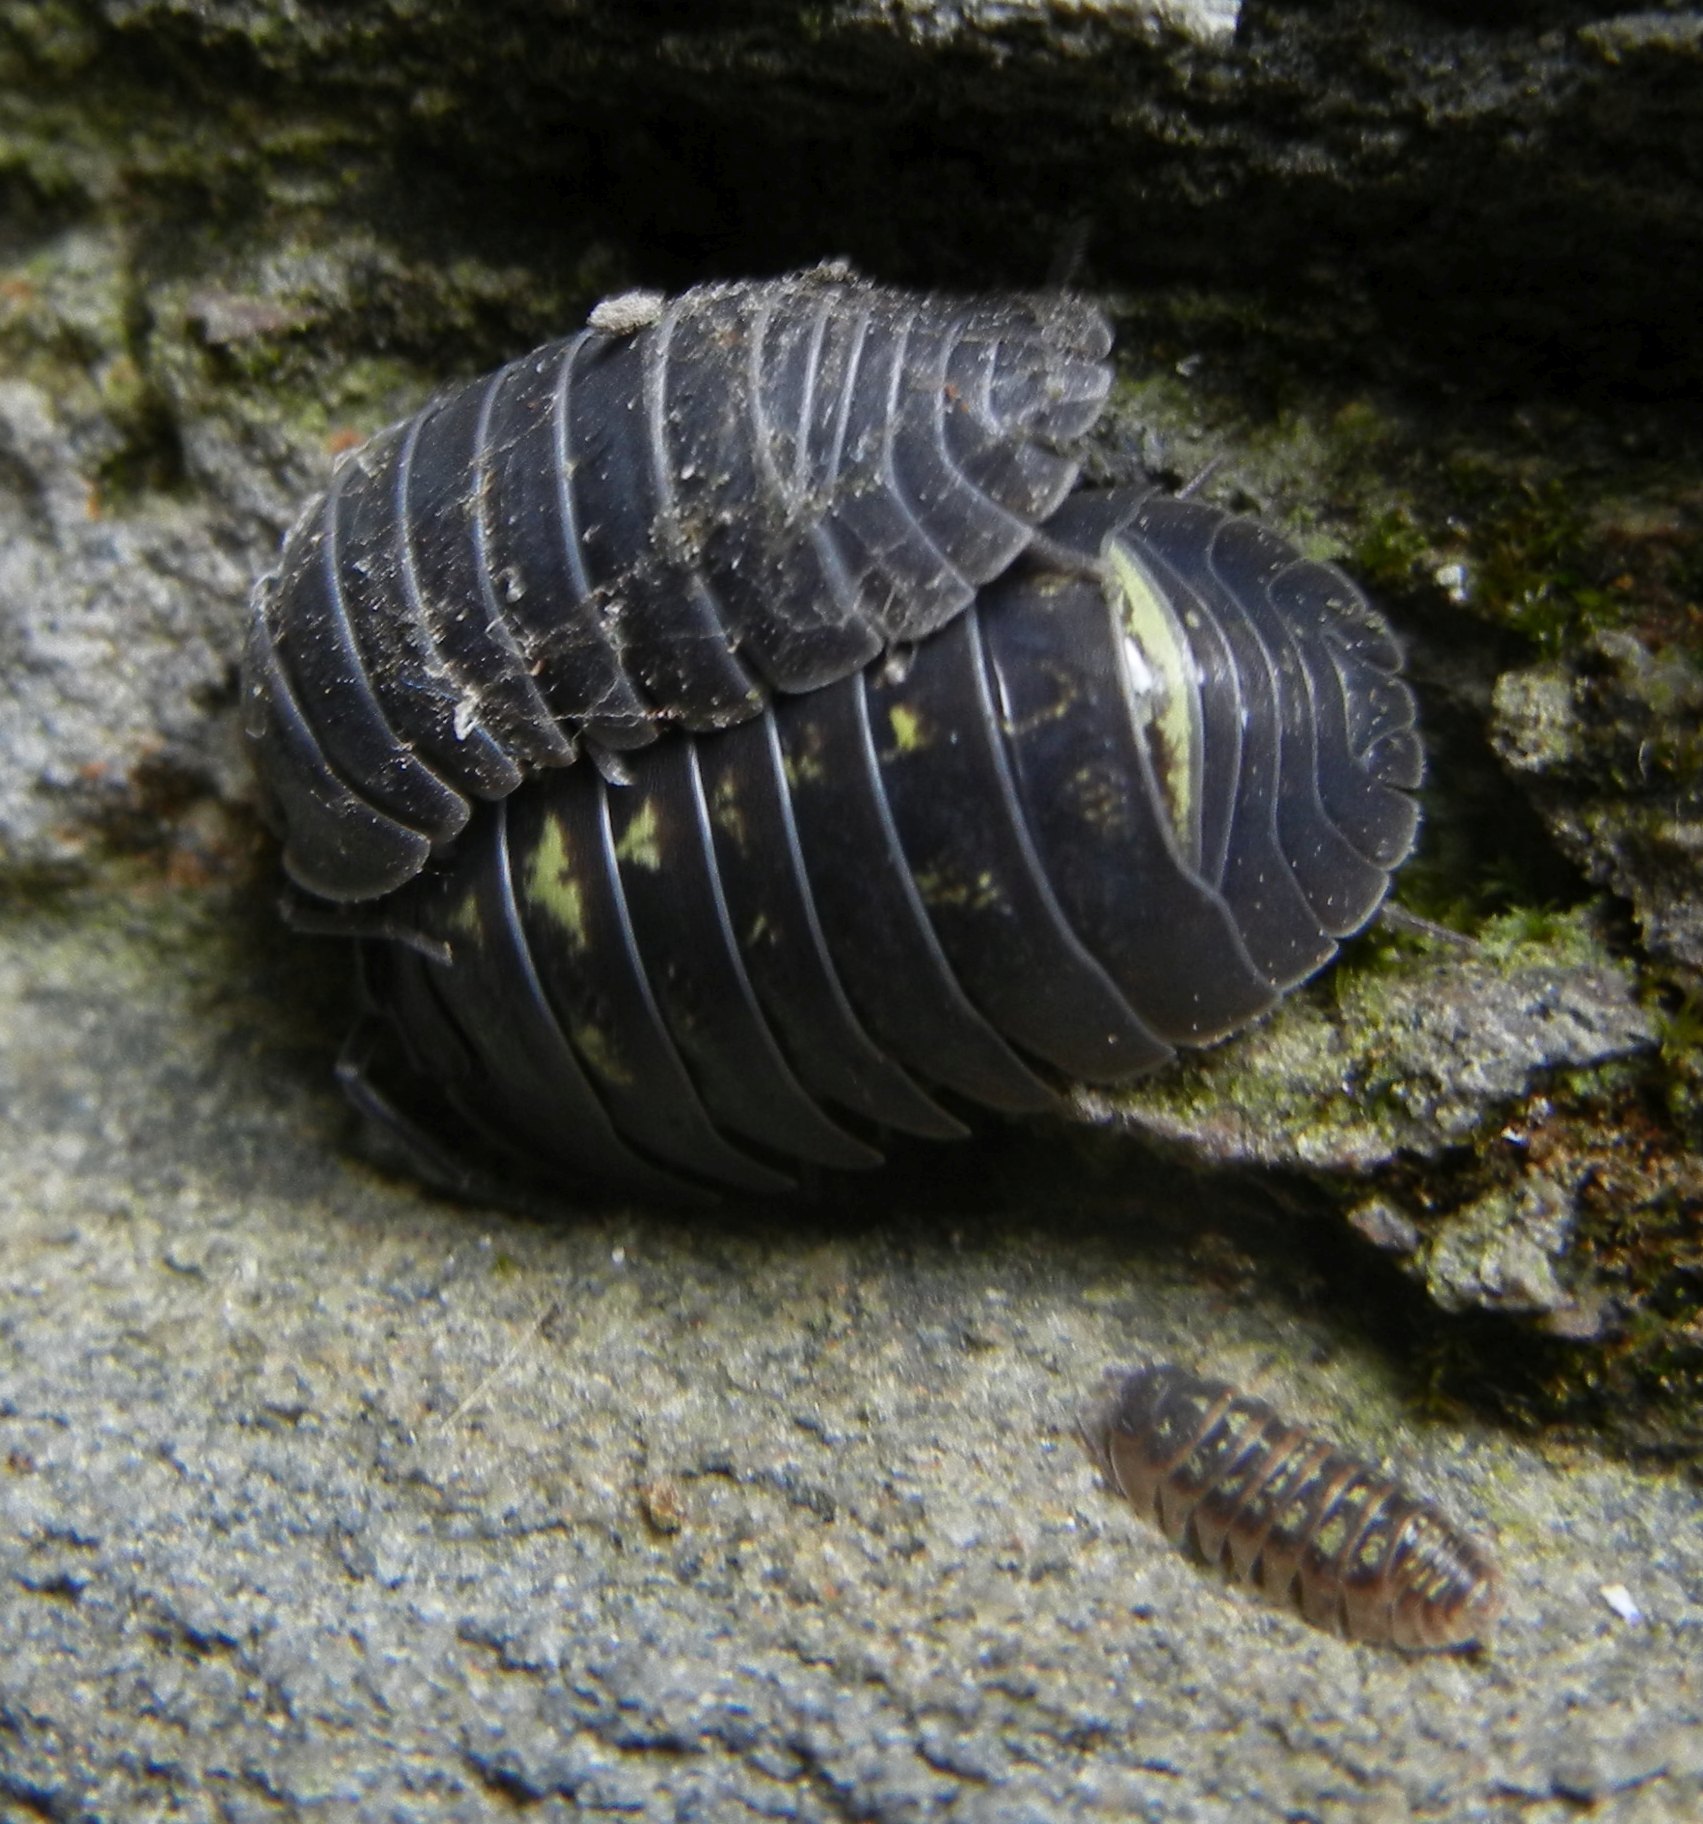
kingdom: Animalia
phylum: Arthropoda
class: Malacostraca
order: Isopoda
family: Armadillidiidae
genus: Armadillidium
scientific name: Armadillidium depressum
